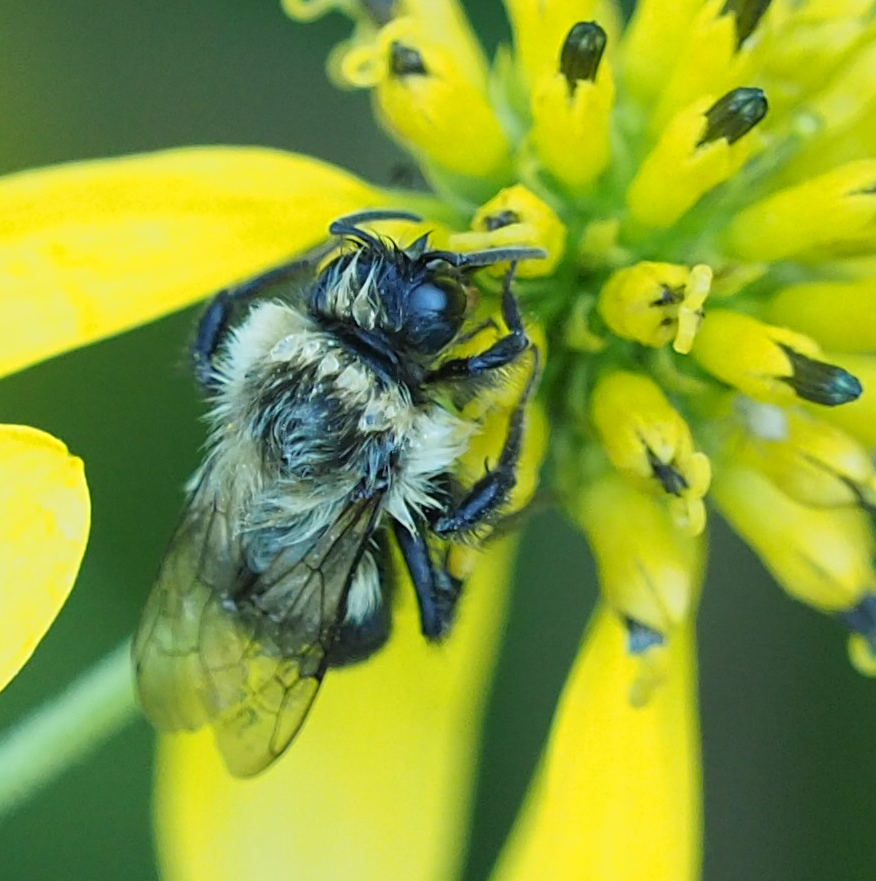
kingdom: Animalia
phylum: Arthropoda
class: Insecta
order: Hymenoptera
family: Apidae
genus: Bombus
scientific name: Bombus impatiens
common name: Common eastern bumble bee
